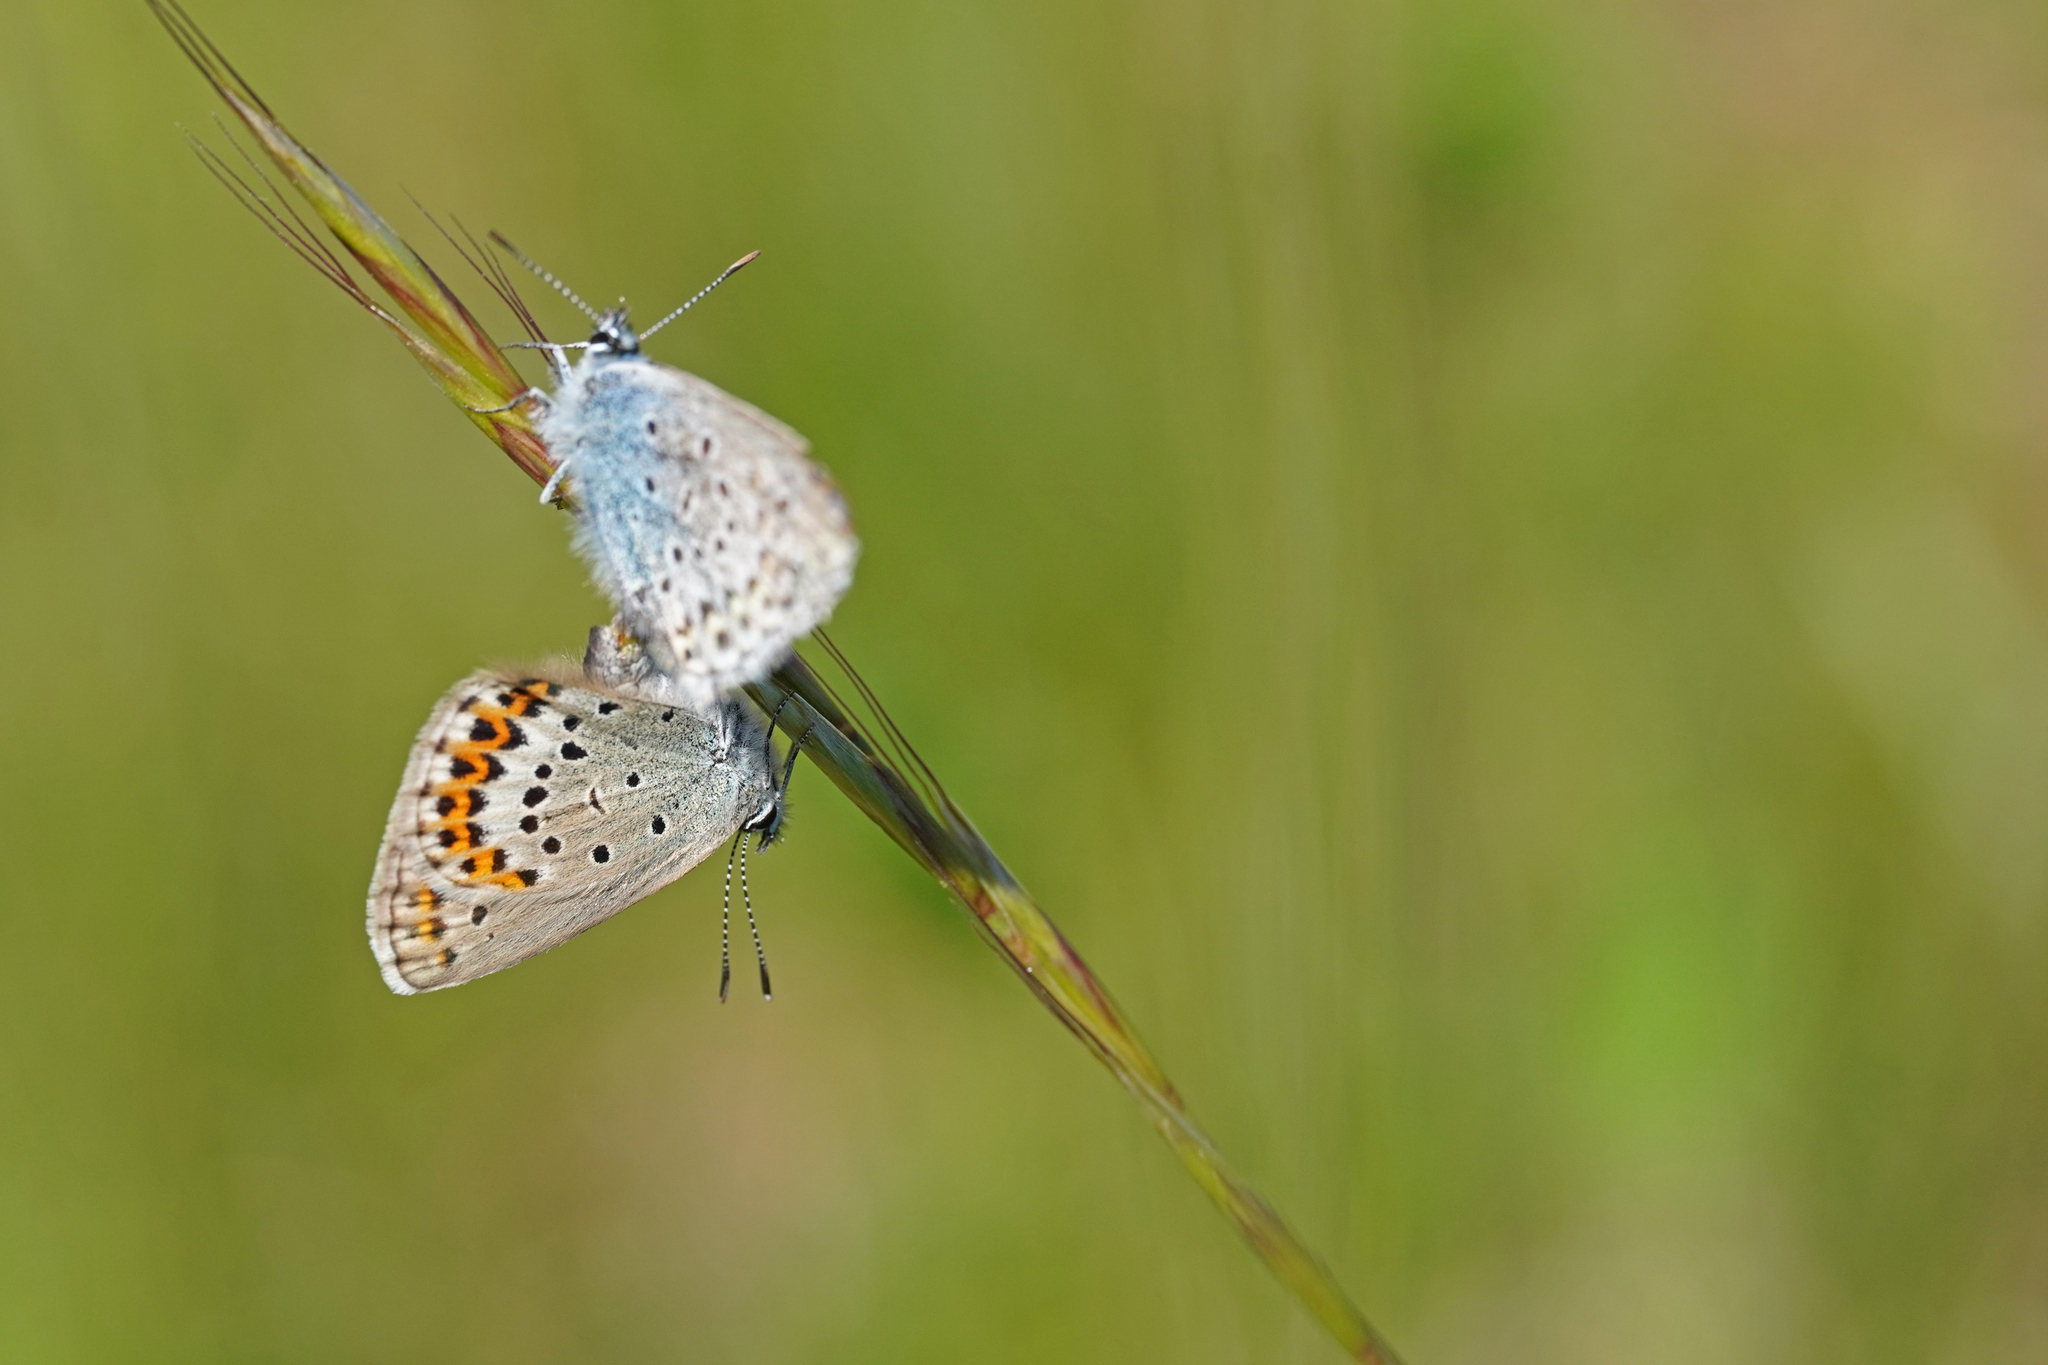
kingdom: Animalia
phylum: Arthropoda
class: Insecta
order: Lepidoptera
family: Lycaenidae
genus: Lycaeides
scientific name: Lycaeides idas
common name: Northern blue
